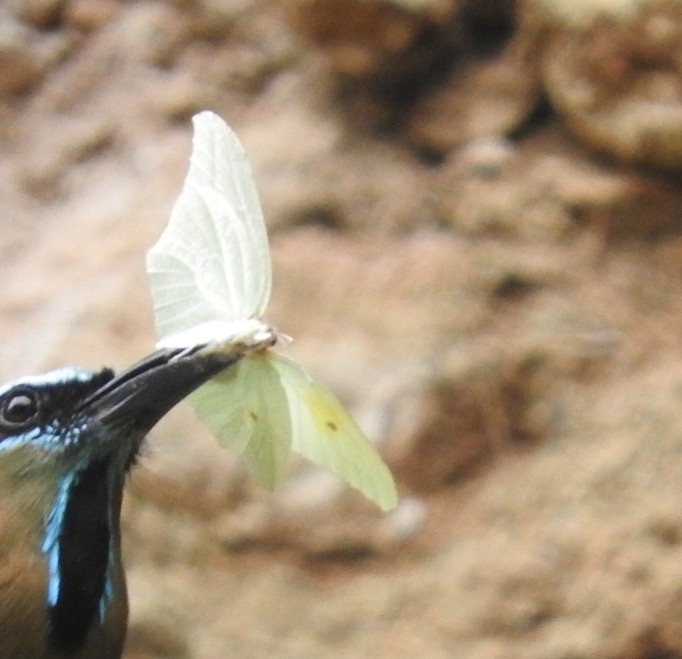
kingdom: Animalia
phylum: Arthropoda
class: Insecta
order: Lepidoptera
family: Pieridae
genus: Anteos
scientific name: Anteos clorinde
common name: White angled sulphur
